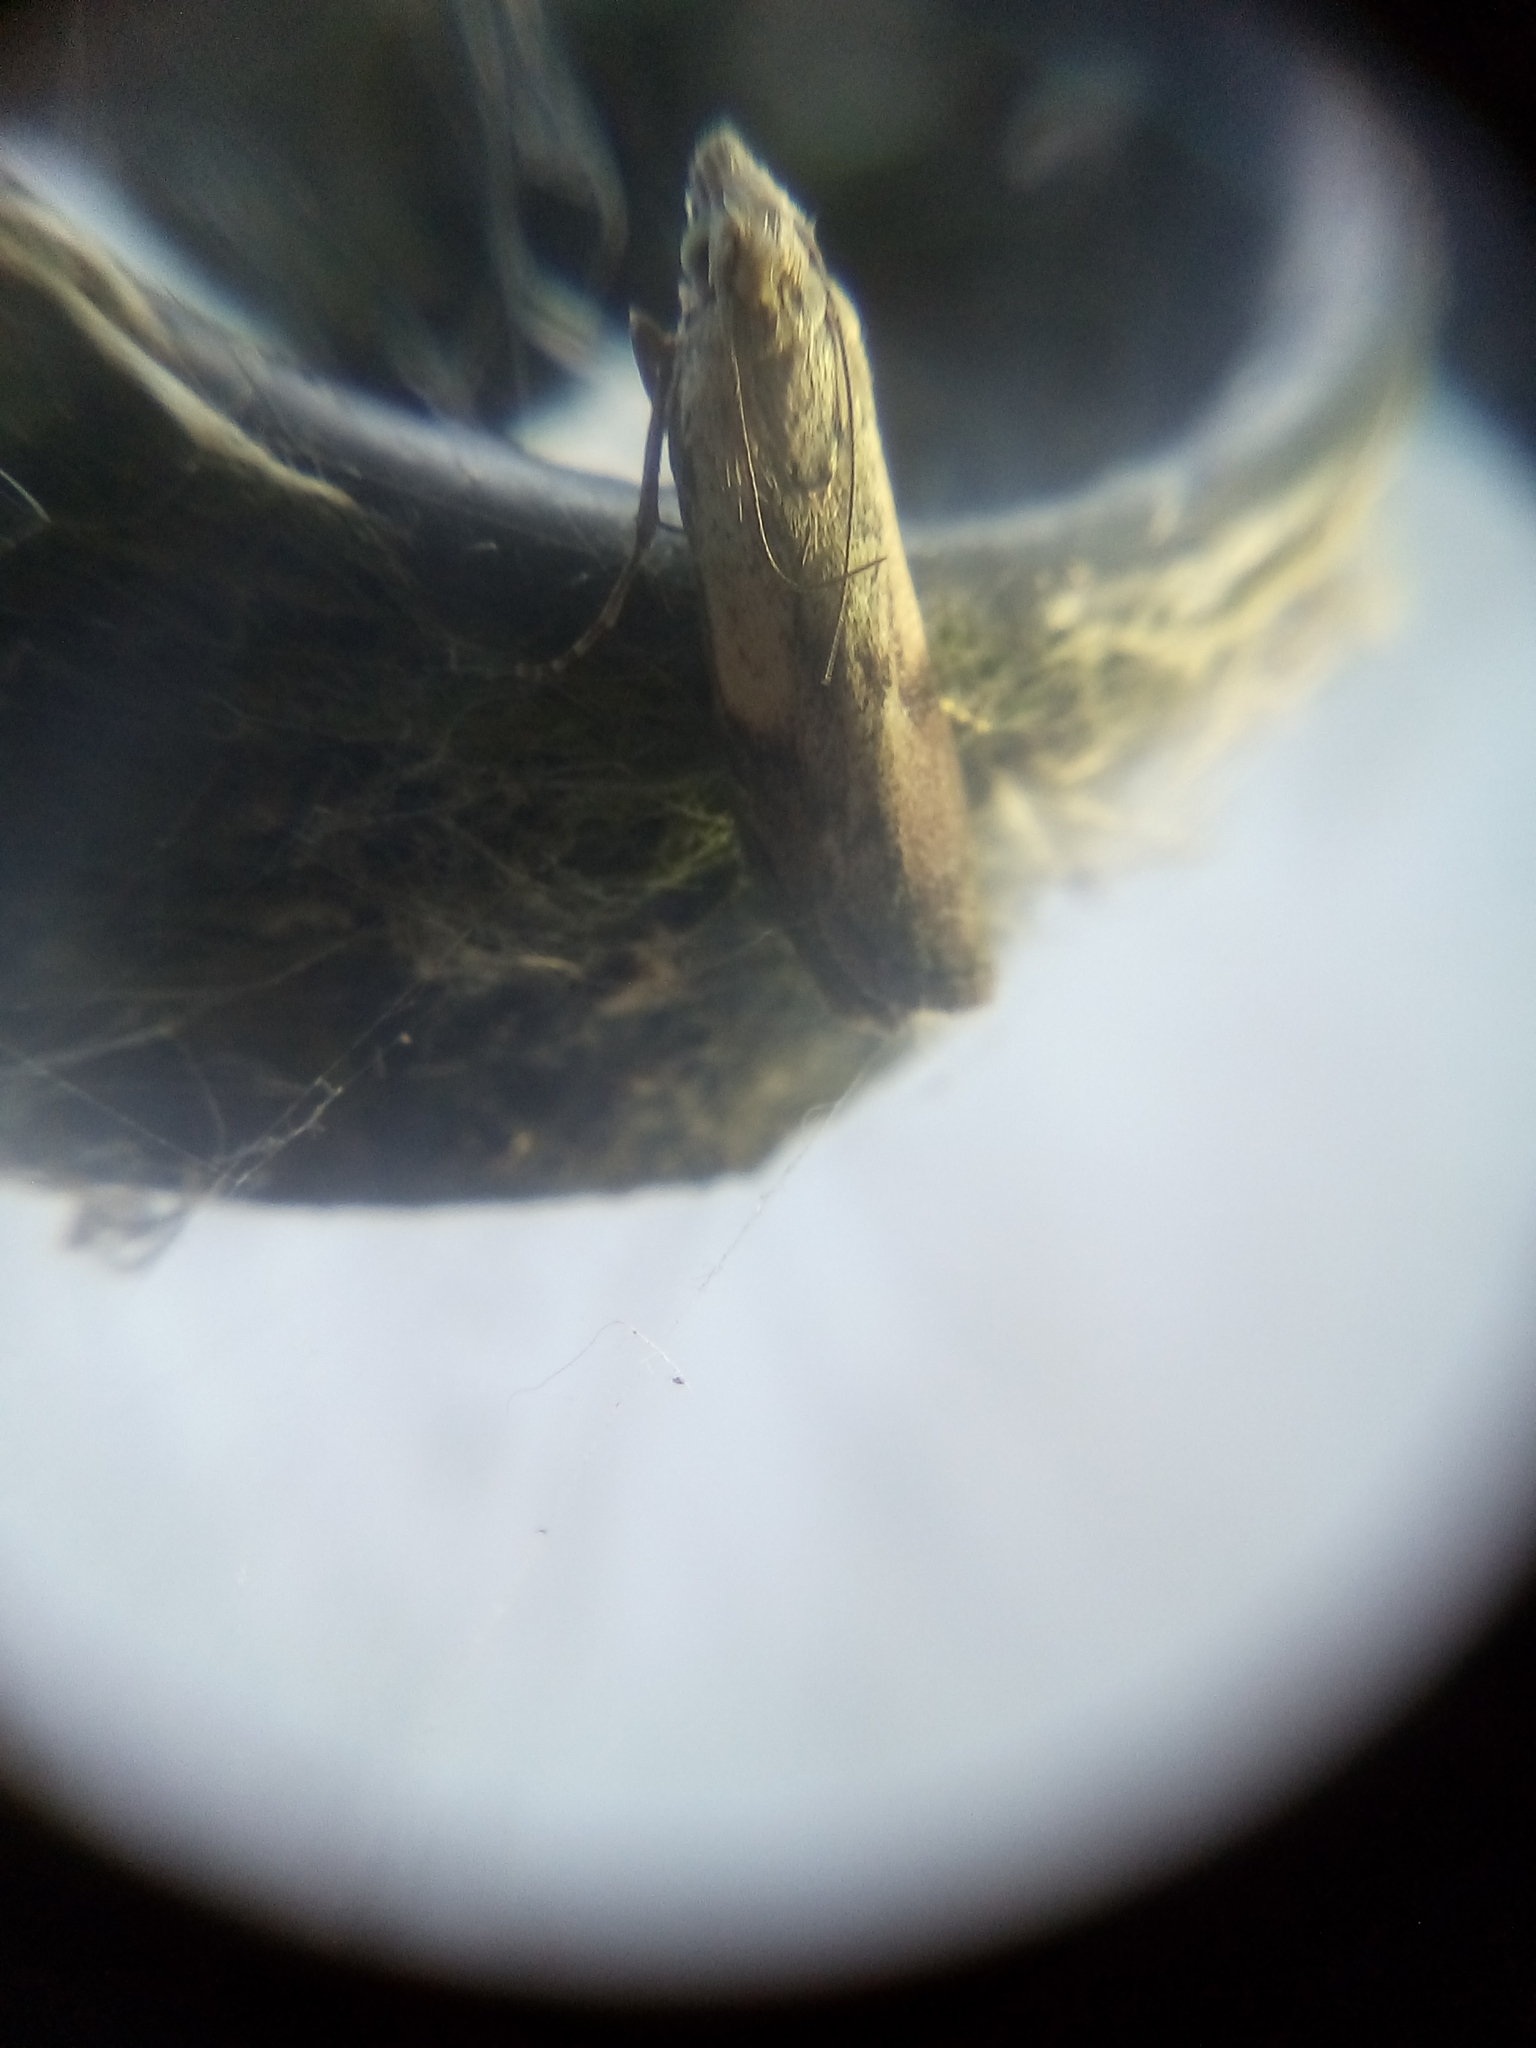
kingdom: Animalia
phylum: Arthropoda
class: Insecta
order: Lepidoptera
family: Pyralidae
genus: Aphomia
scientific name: Aphomia sociella
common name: Bee moth
